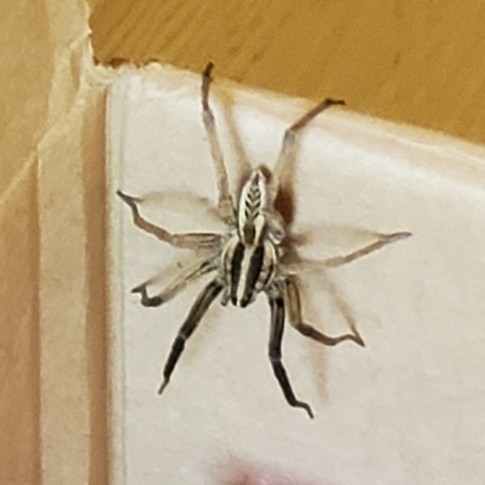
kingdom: Animalia
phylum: Arthropoda
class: Arachnida
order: Araneae
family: Lycosidae
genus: Rabidosa
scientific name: Rabidosa rabida
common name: Rabid wolf spider
